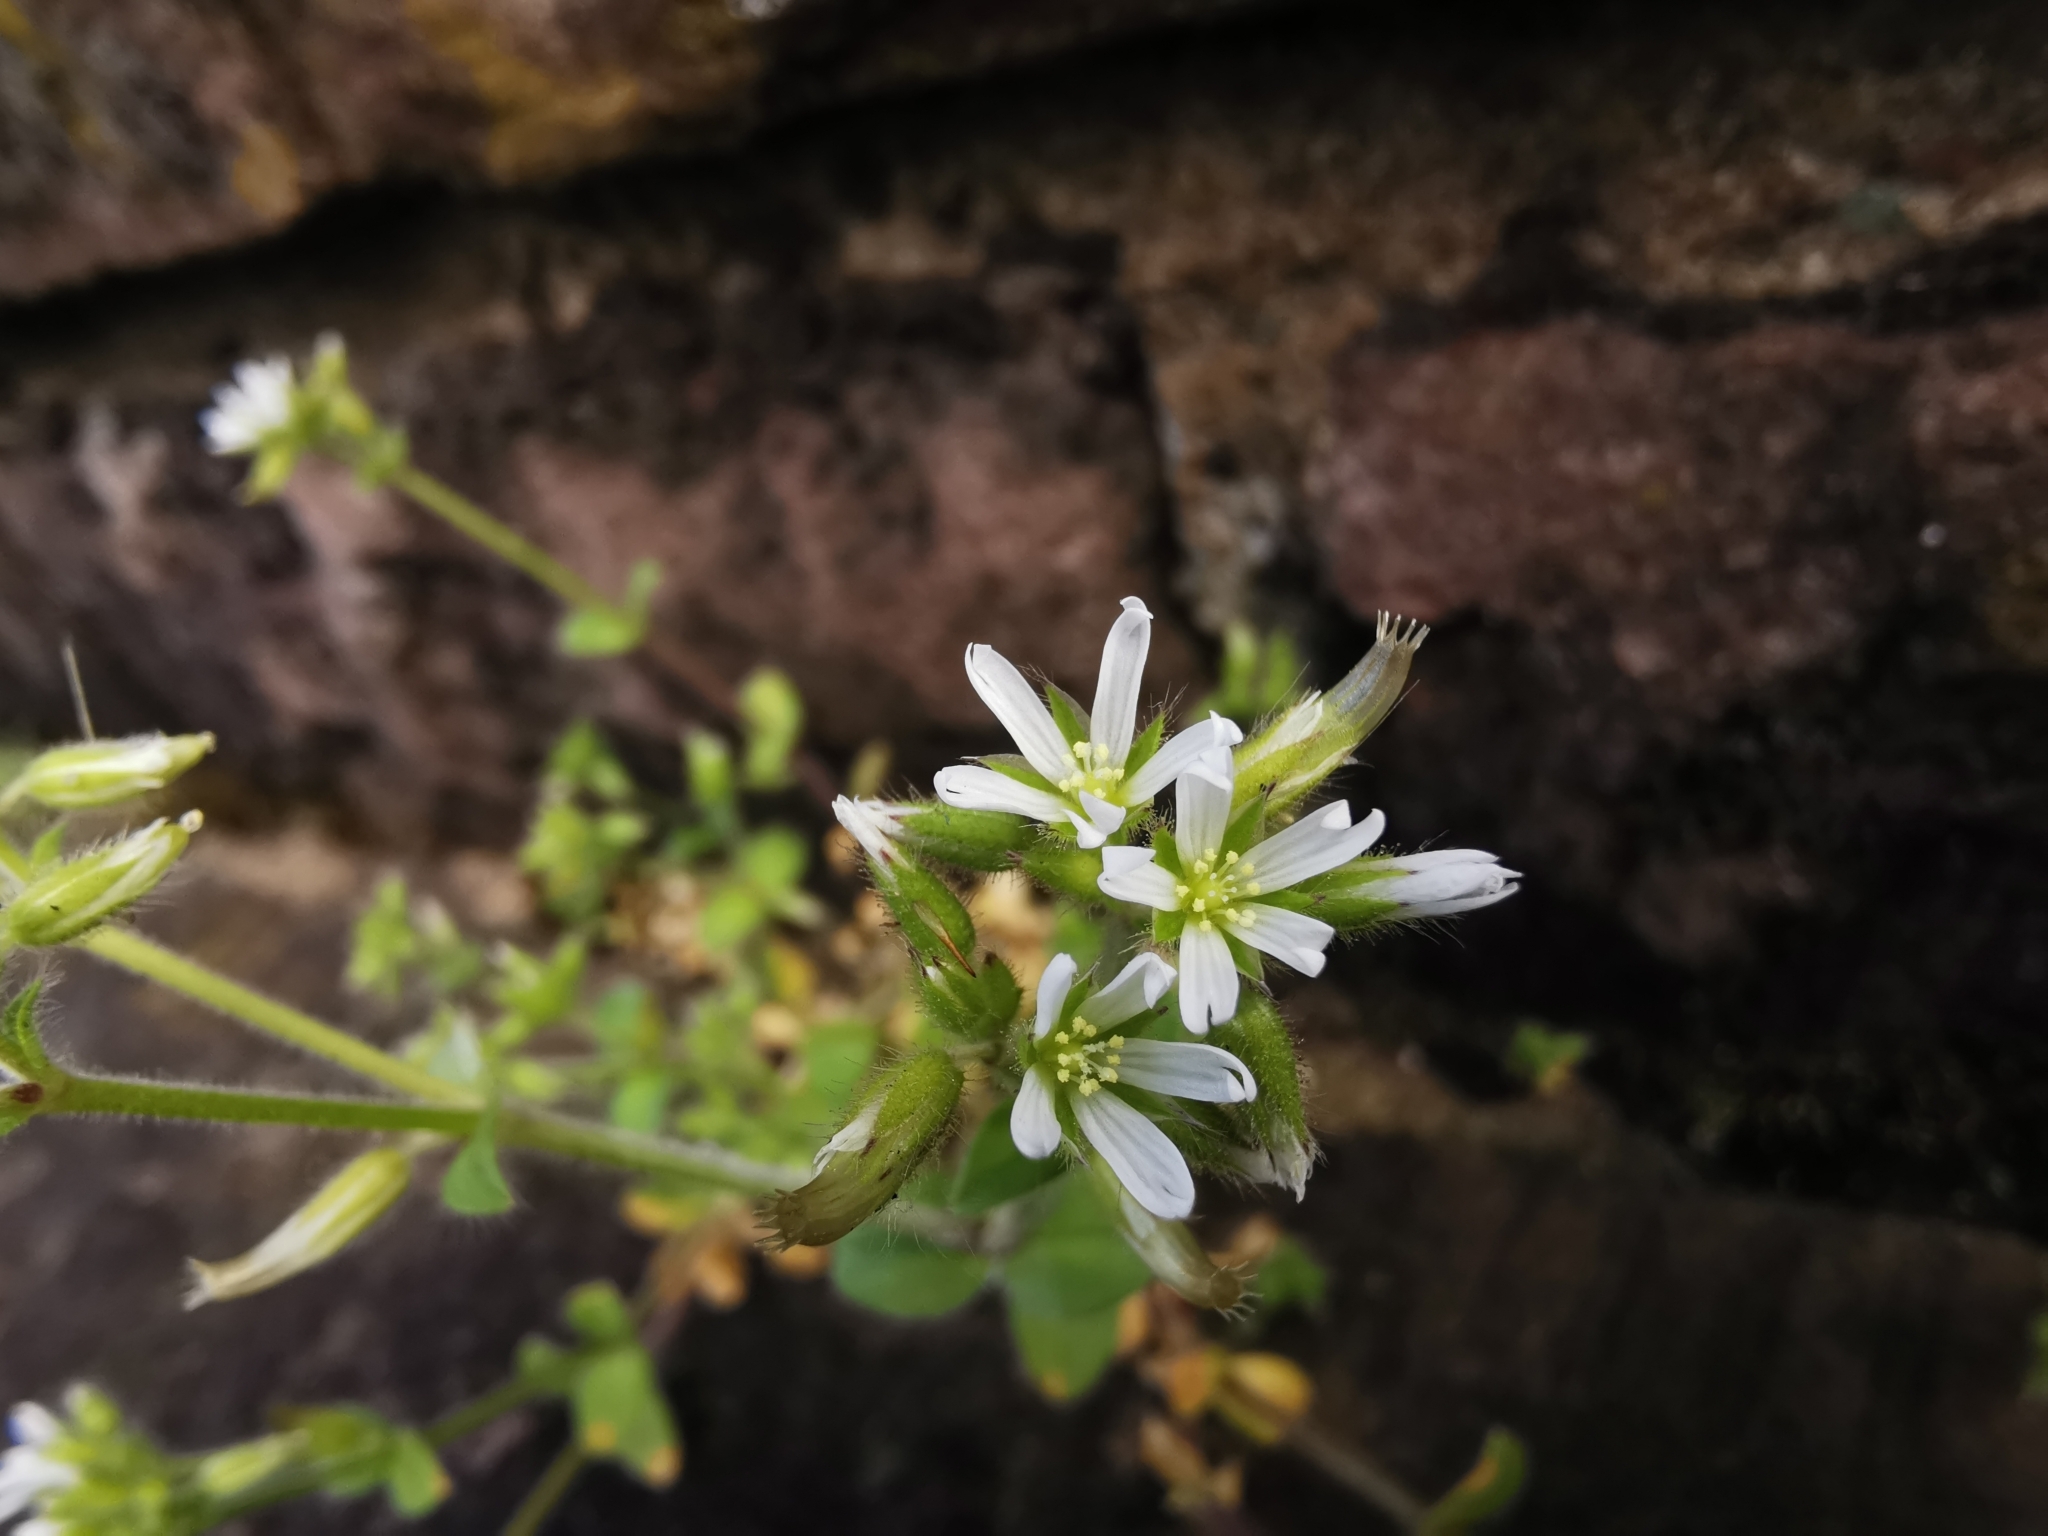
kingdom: Plantae
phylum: Tracheophyta
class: Magnoliopsida
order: Caryophyllales
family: Caryophyllaceae
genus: Cerastium
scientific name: Cerastium glomeratum
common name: Sticky chickweed
